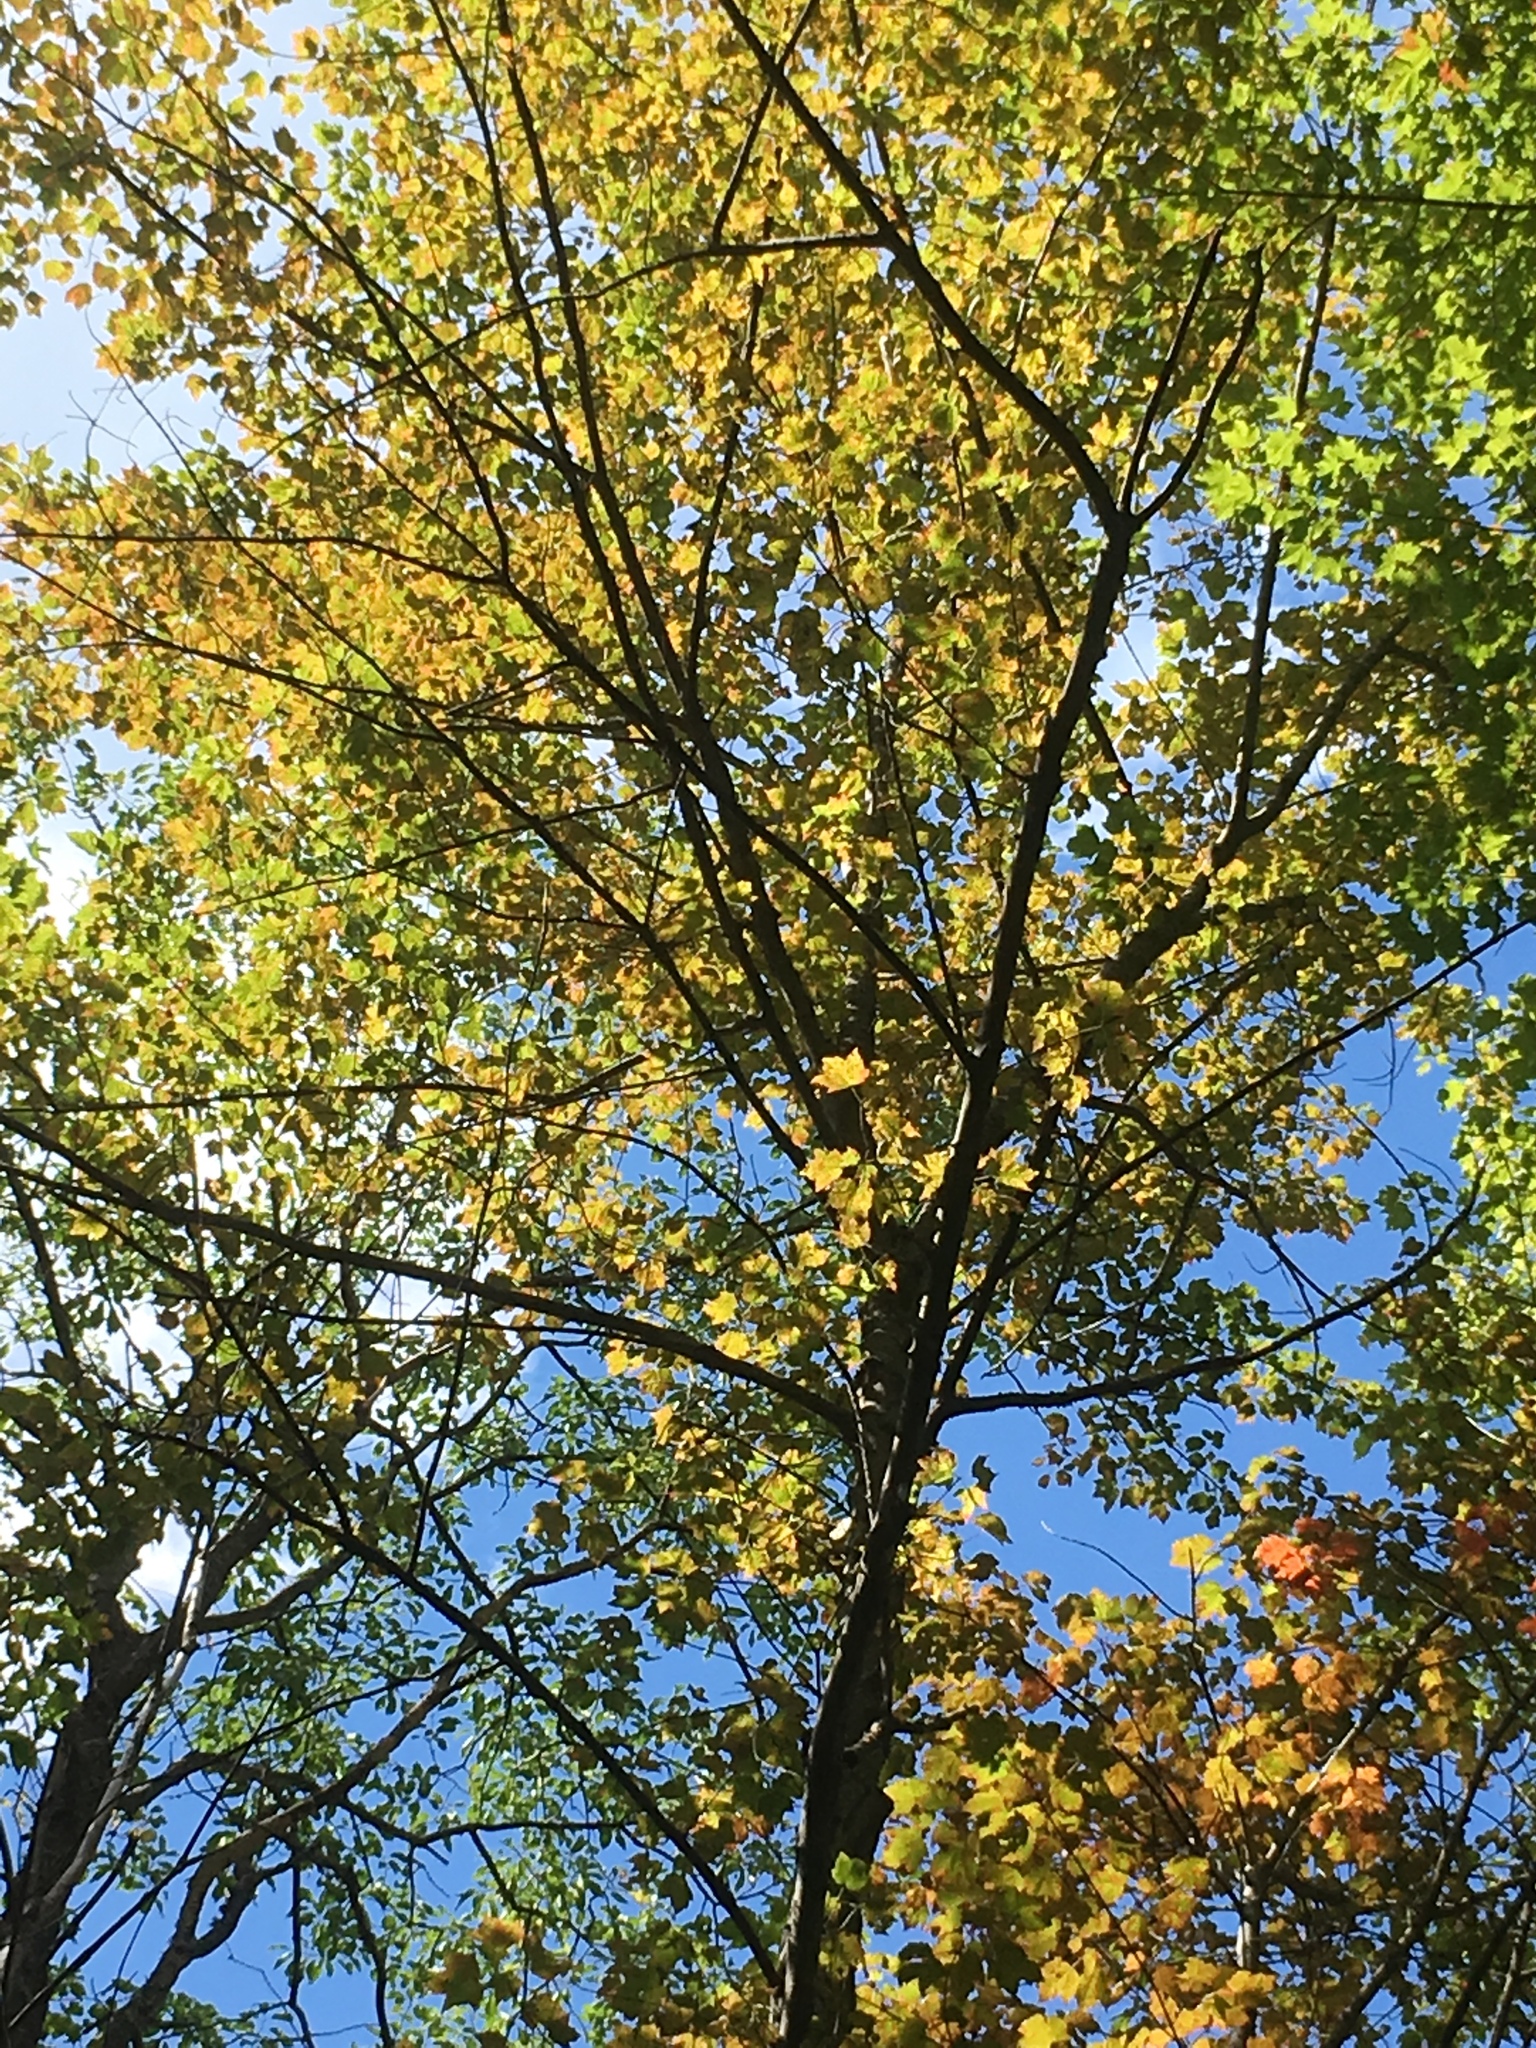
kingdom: Plantae
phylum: Tracheophyta
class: Magnoliopsida
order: Sapindales
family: Sapindaceae
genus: Acer
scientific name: Acer rubrum
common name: Red maple
